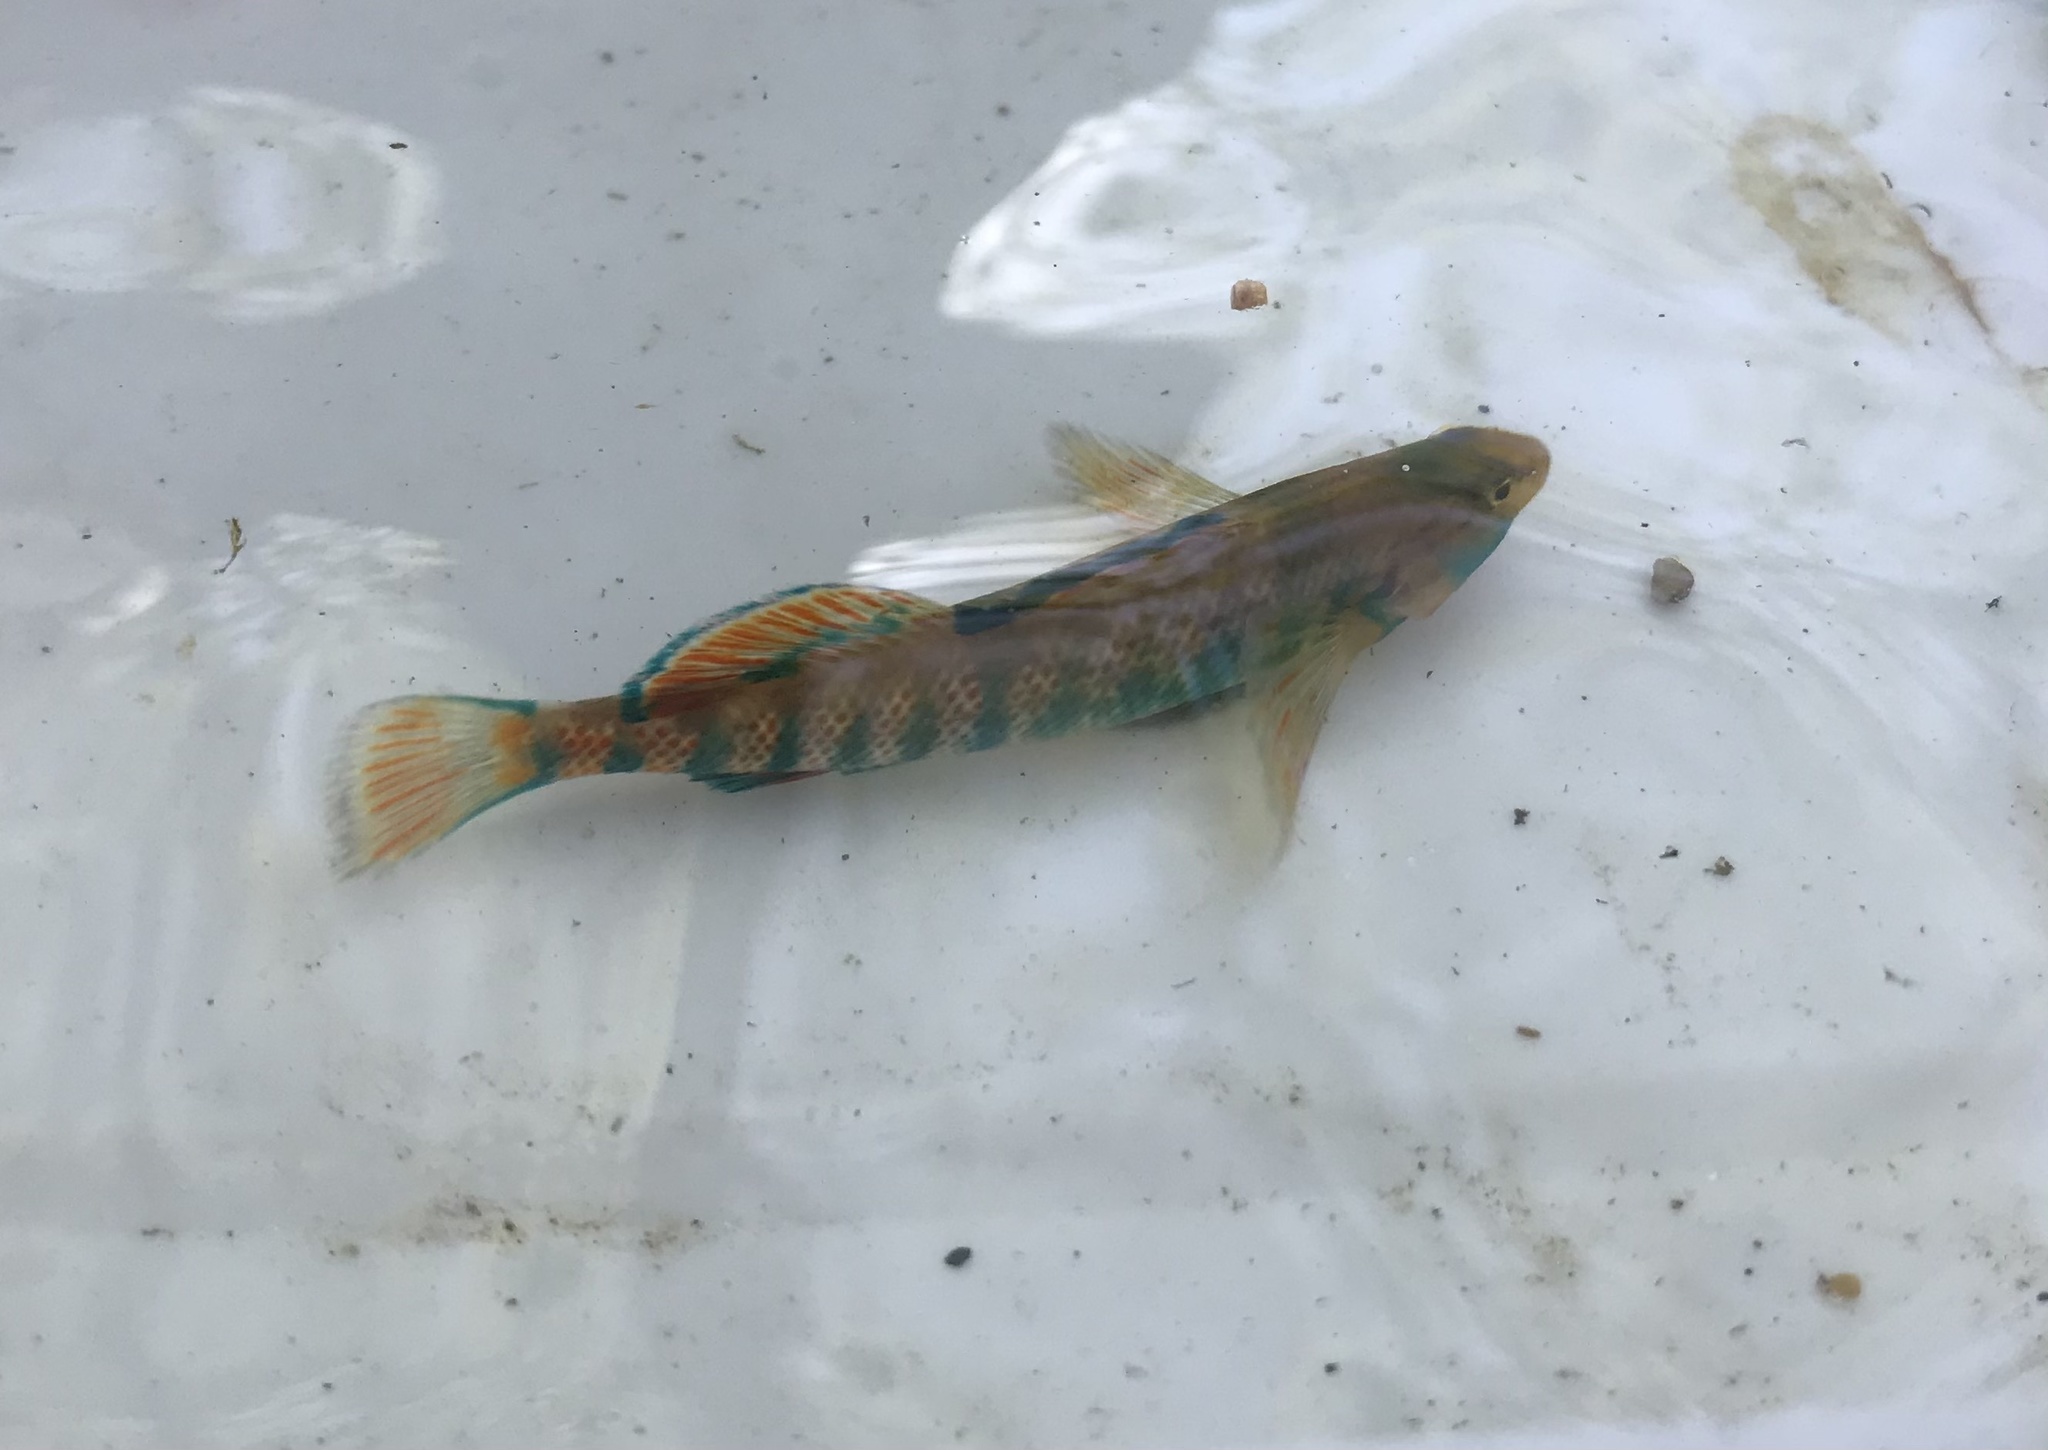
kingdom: Animalia
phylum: Chordata
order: Perciformes
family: Percidae
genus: Etheostoma
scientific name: Etheostoma caeruleum
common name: Rainbow darter
